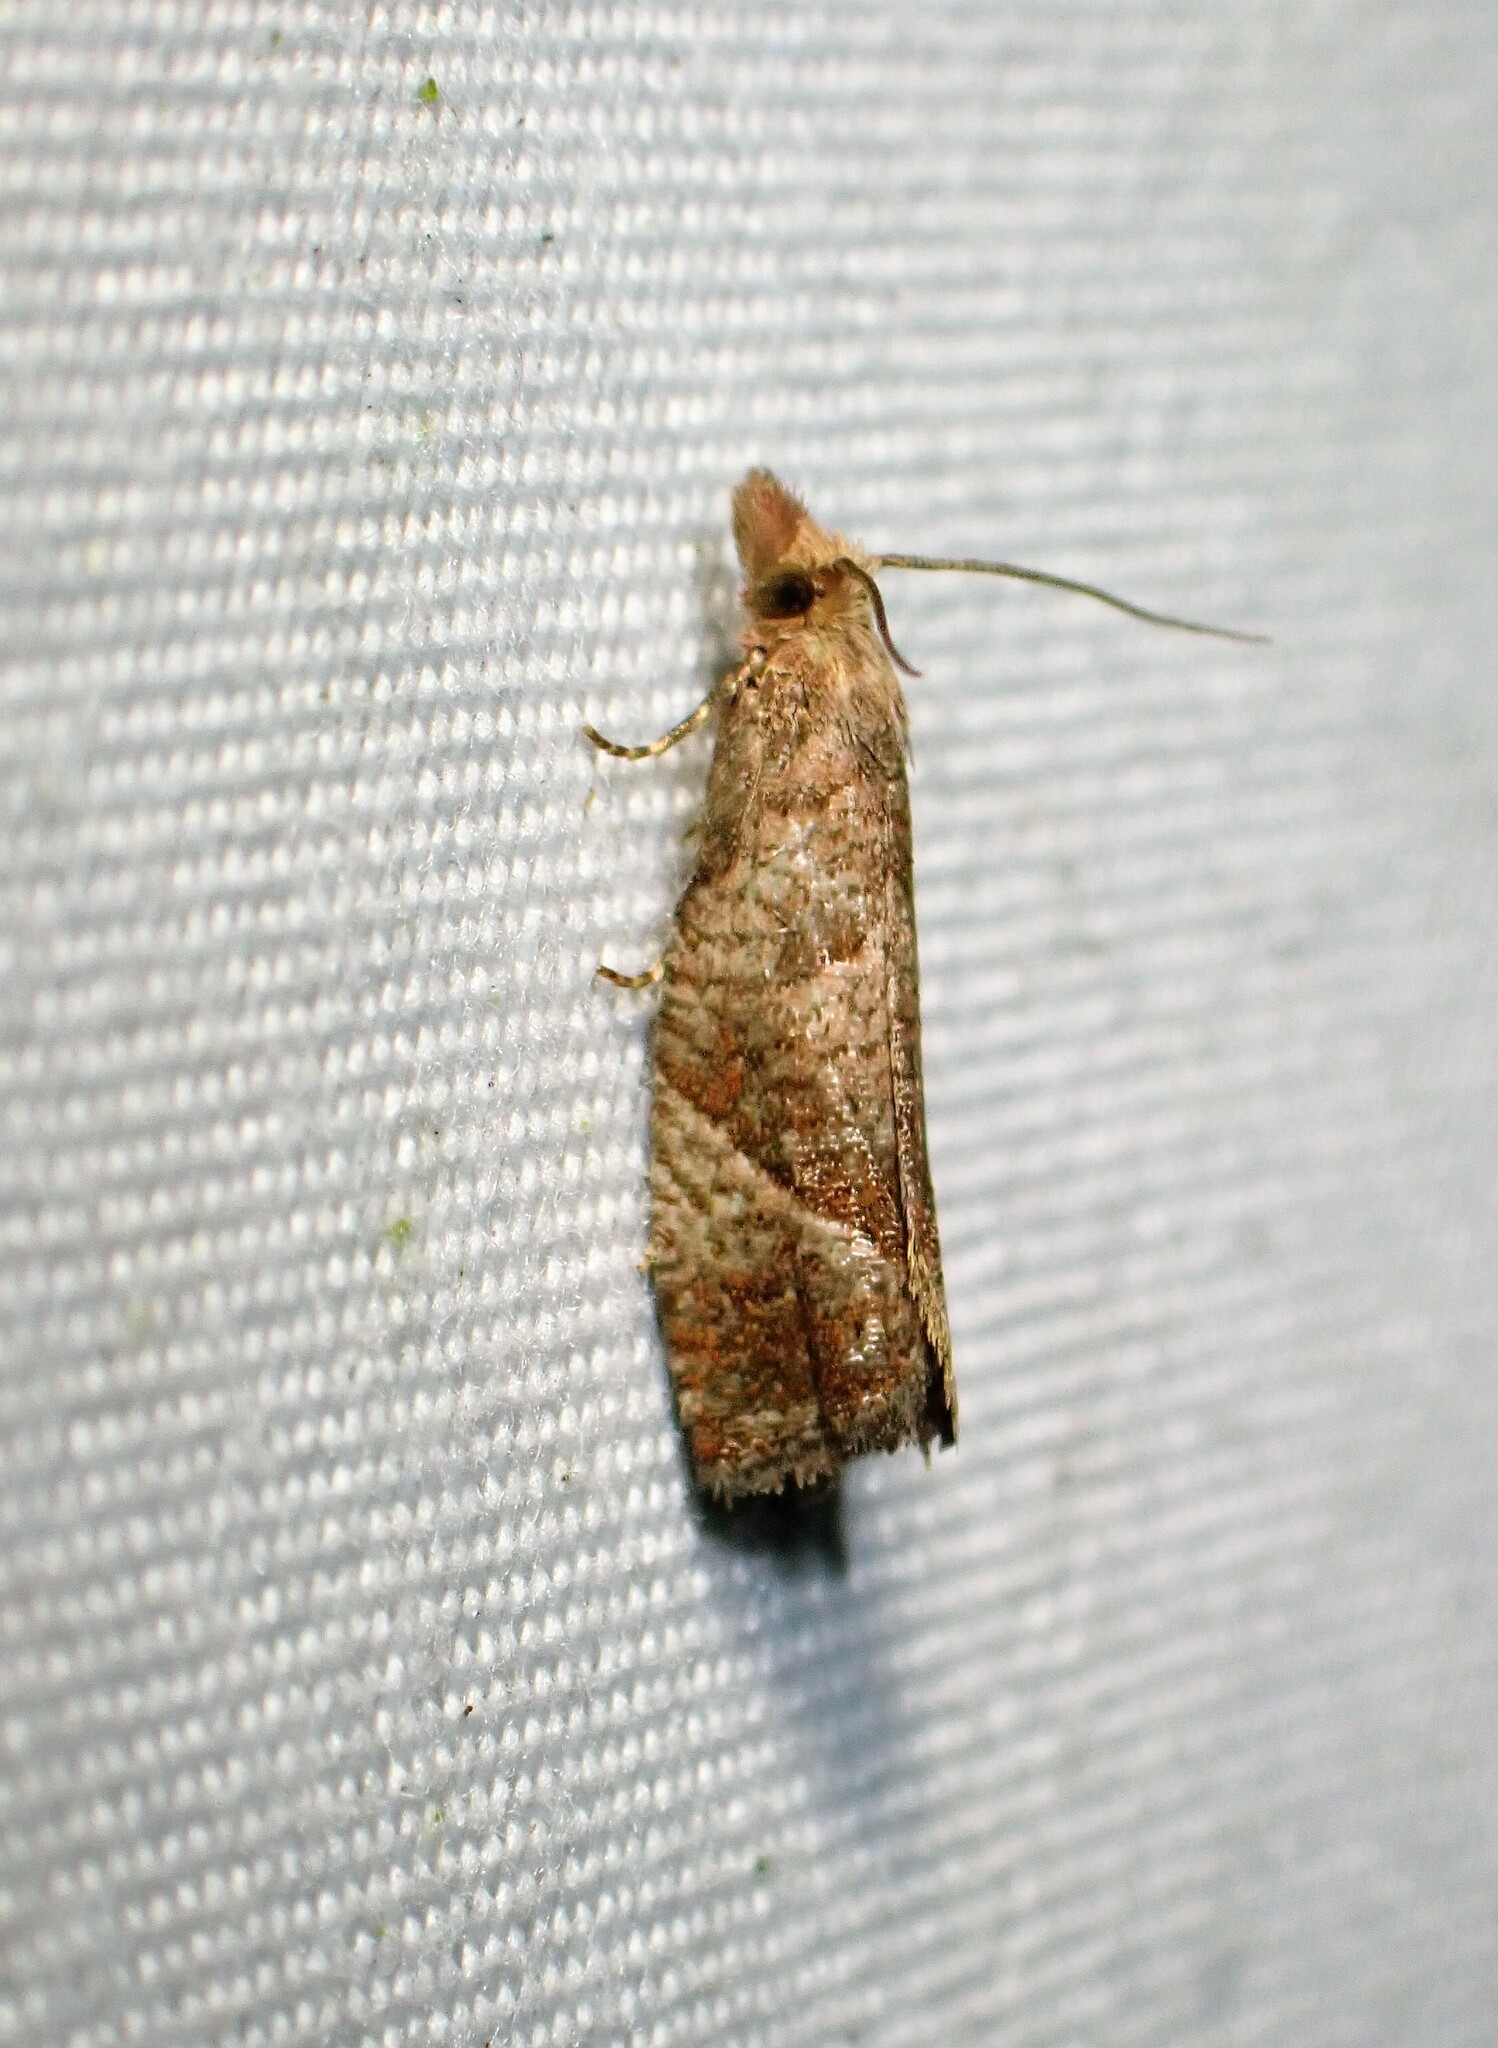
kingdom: Animalia
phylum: Arthropoda
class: Insecta
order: Lepidoptera
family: Tortricidae
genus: Pelochrista
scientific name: Pelochrista derelicta
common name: Derelict pelochrista moth
